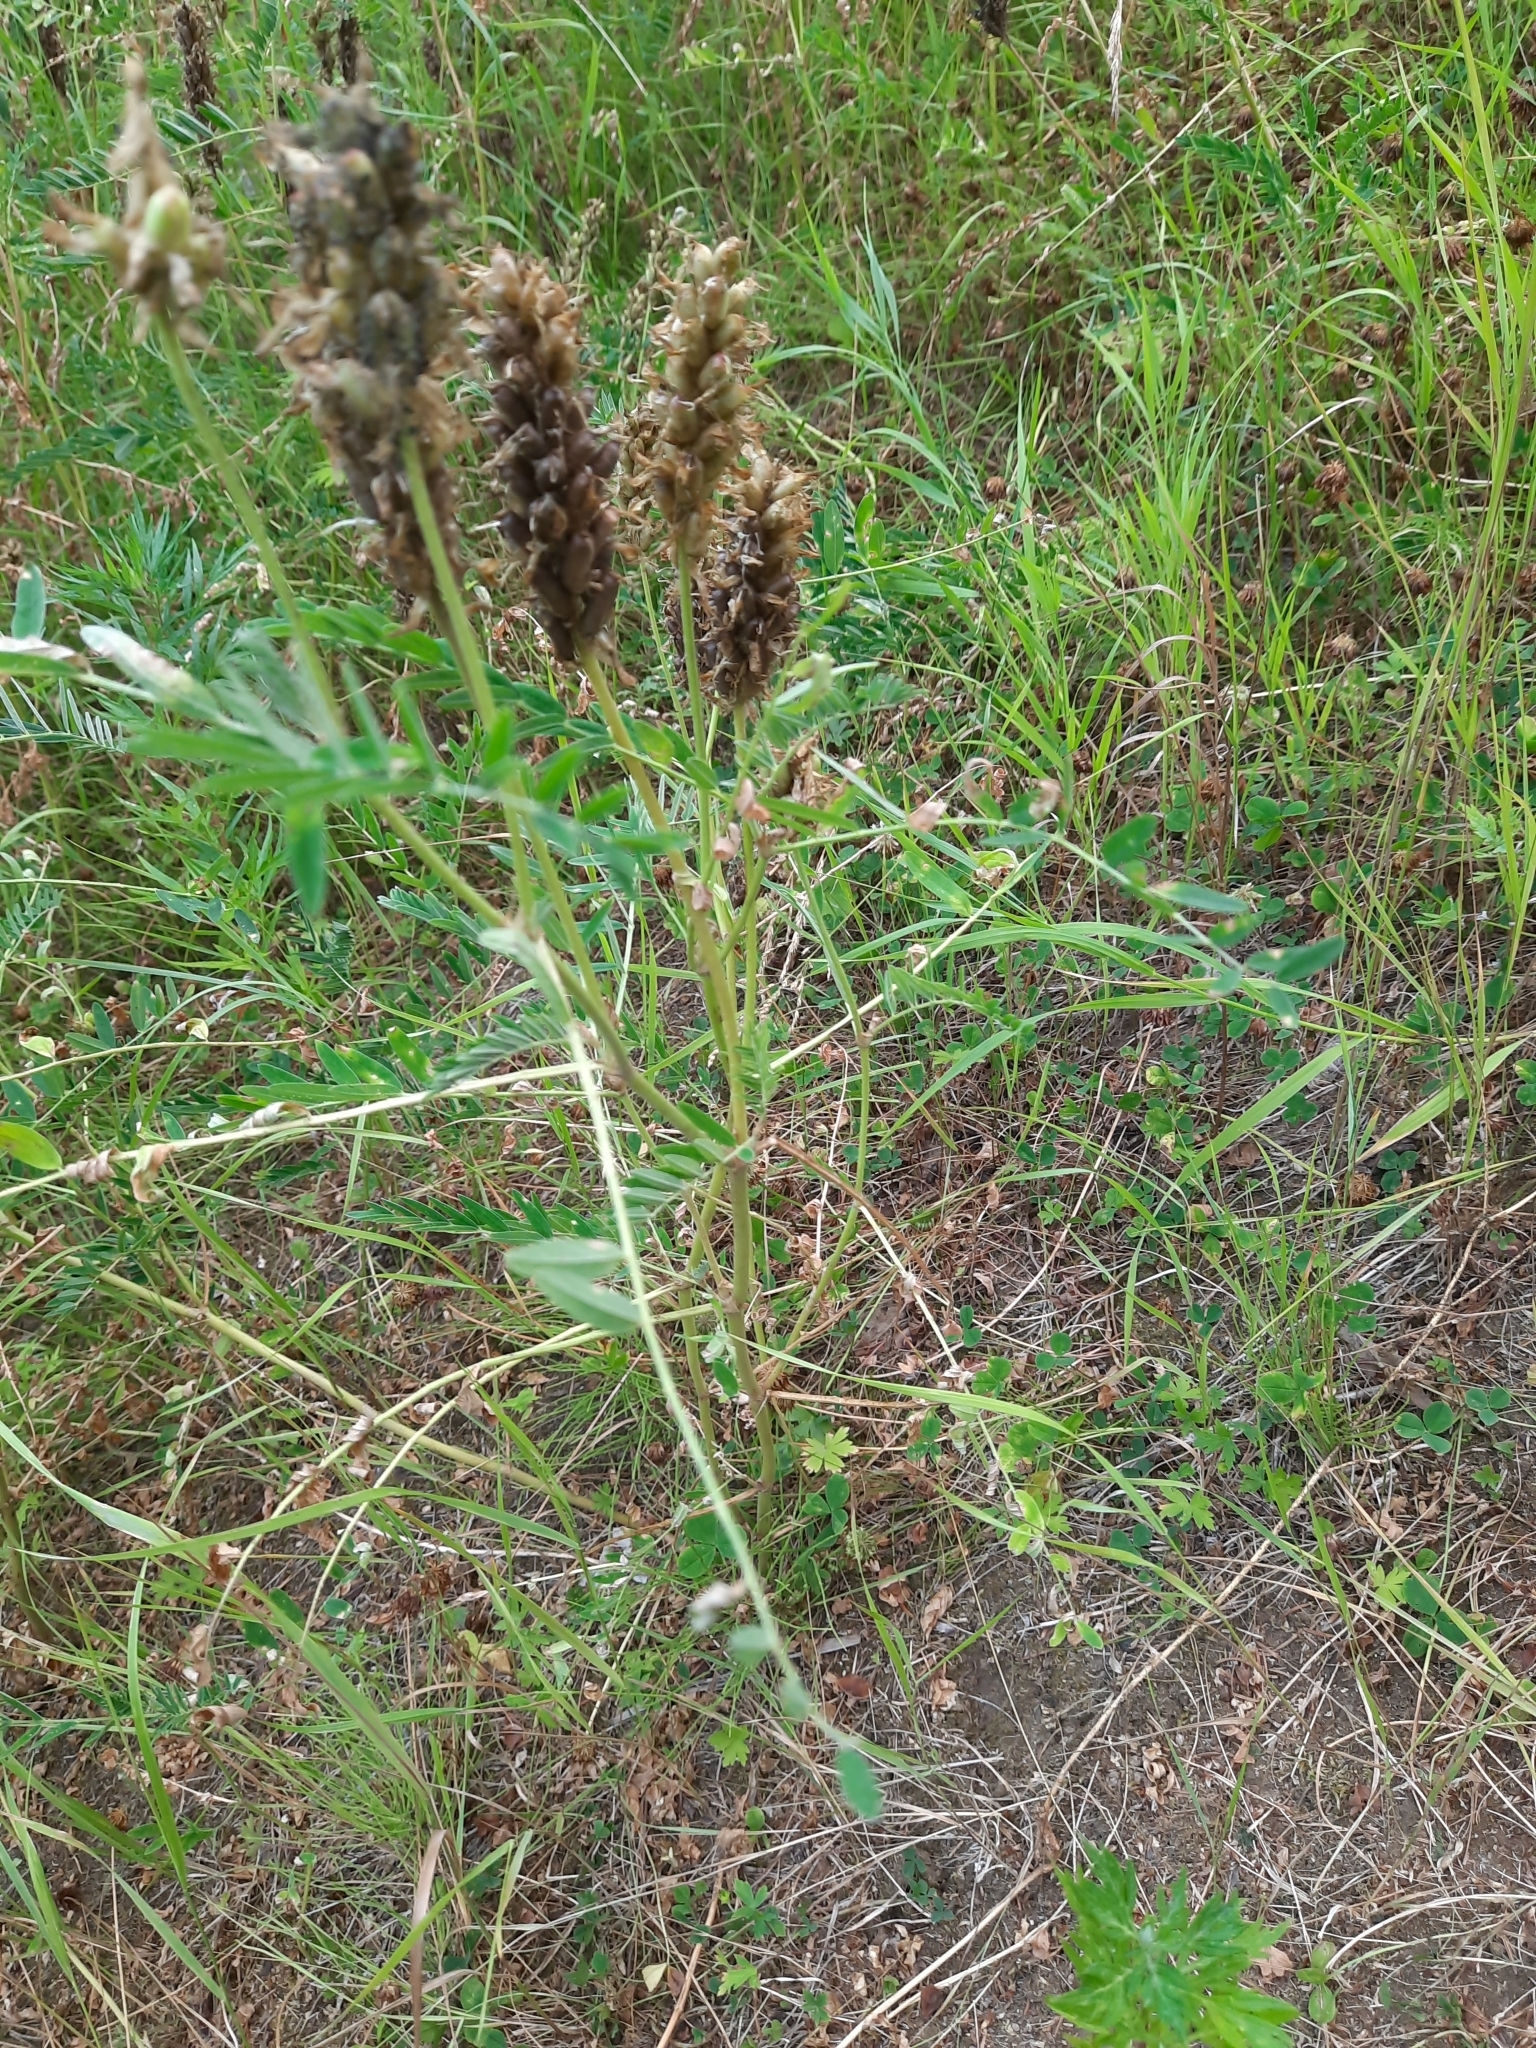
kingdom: Plantae
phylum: Tracheophyta
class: Magnoliopsida
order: Fabales
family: Fabaceae
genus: Astragalus
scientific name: Astragalus uliginosus
